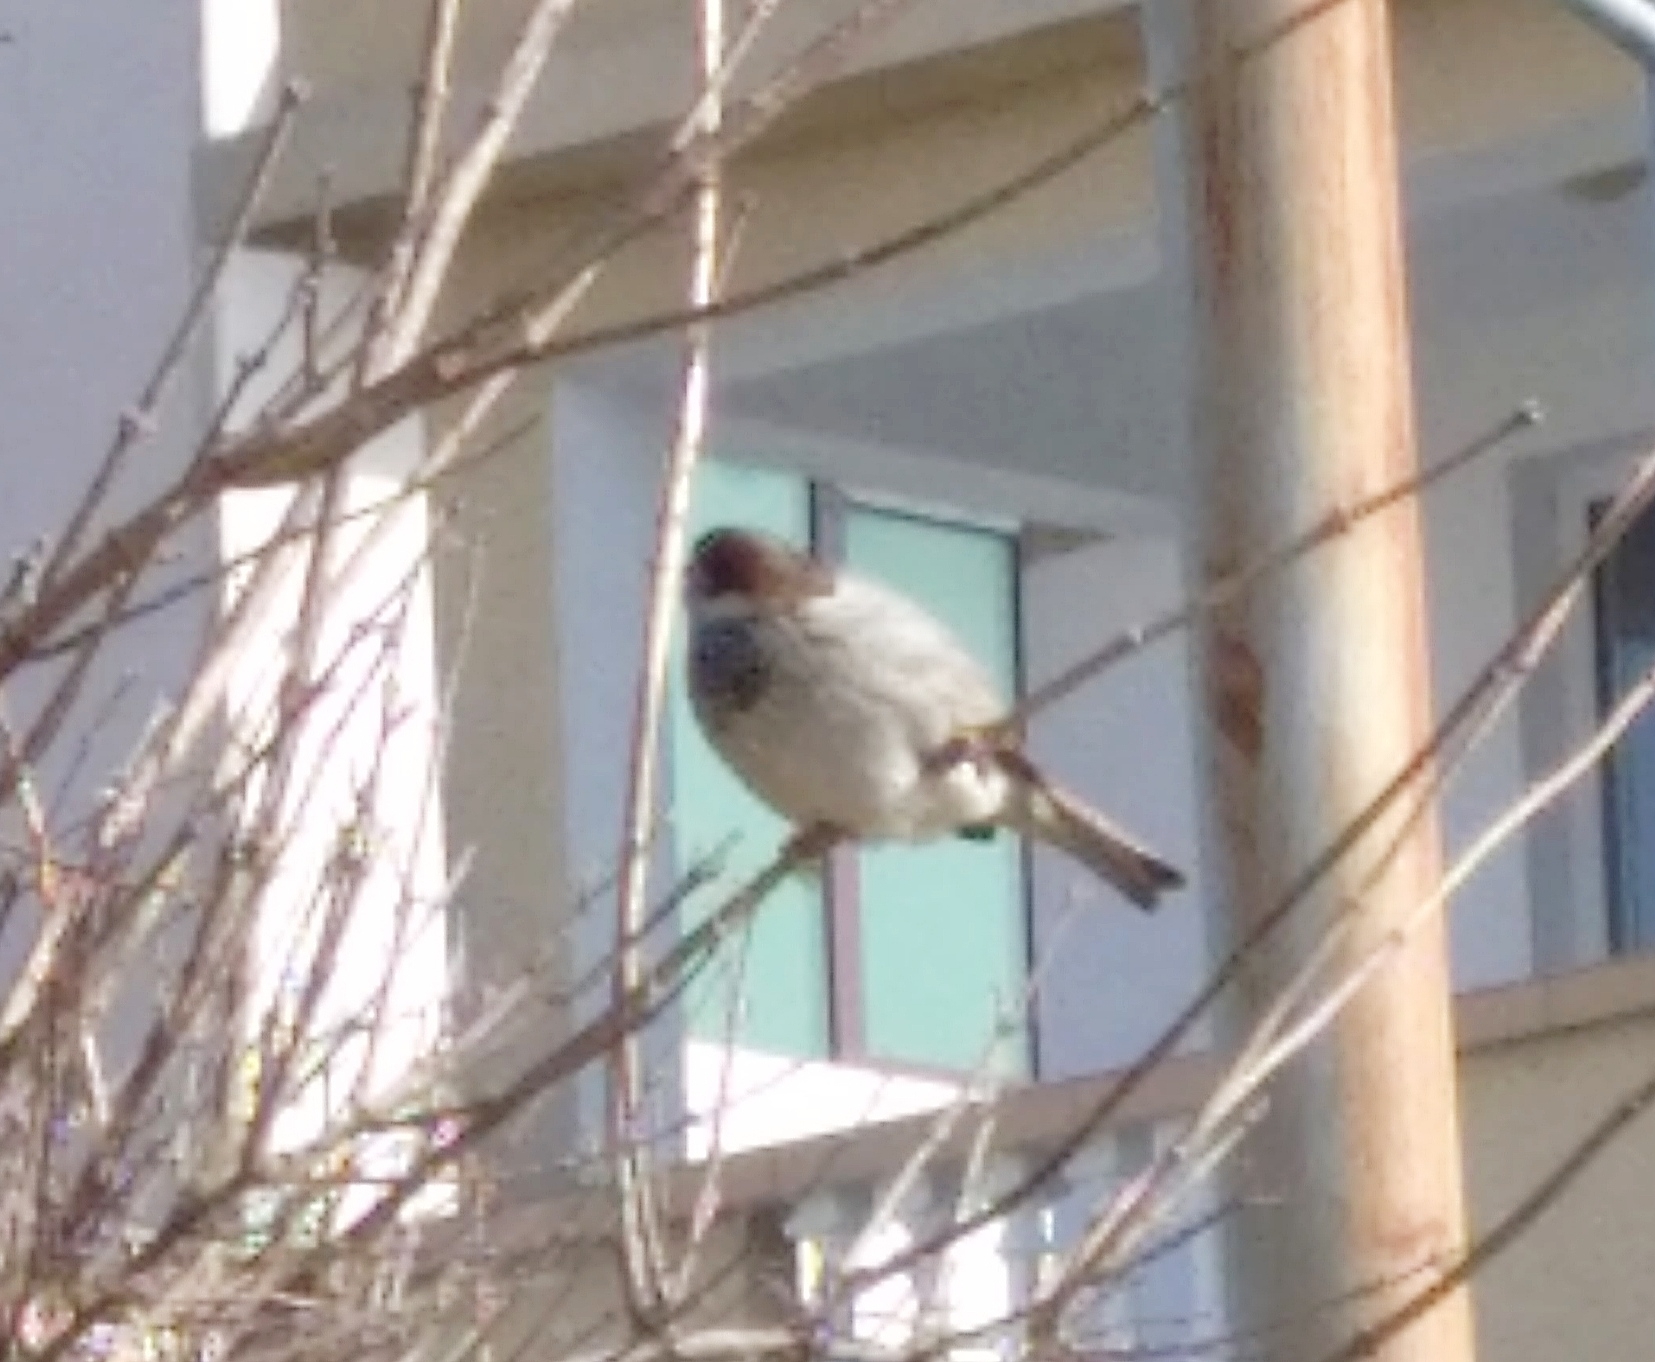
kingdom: Animalia
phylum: Chordata
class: Aves
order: Passeriformes
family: Passeridae
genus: Passer
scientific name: Passer domesticus
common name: House sparrow
